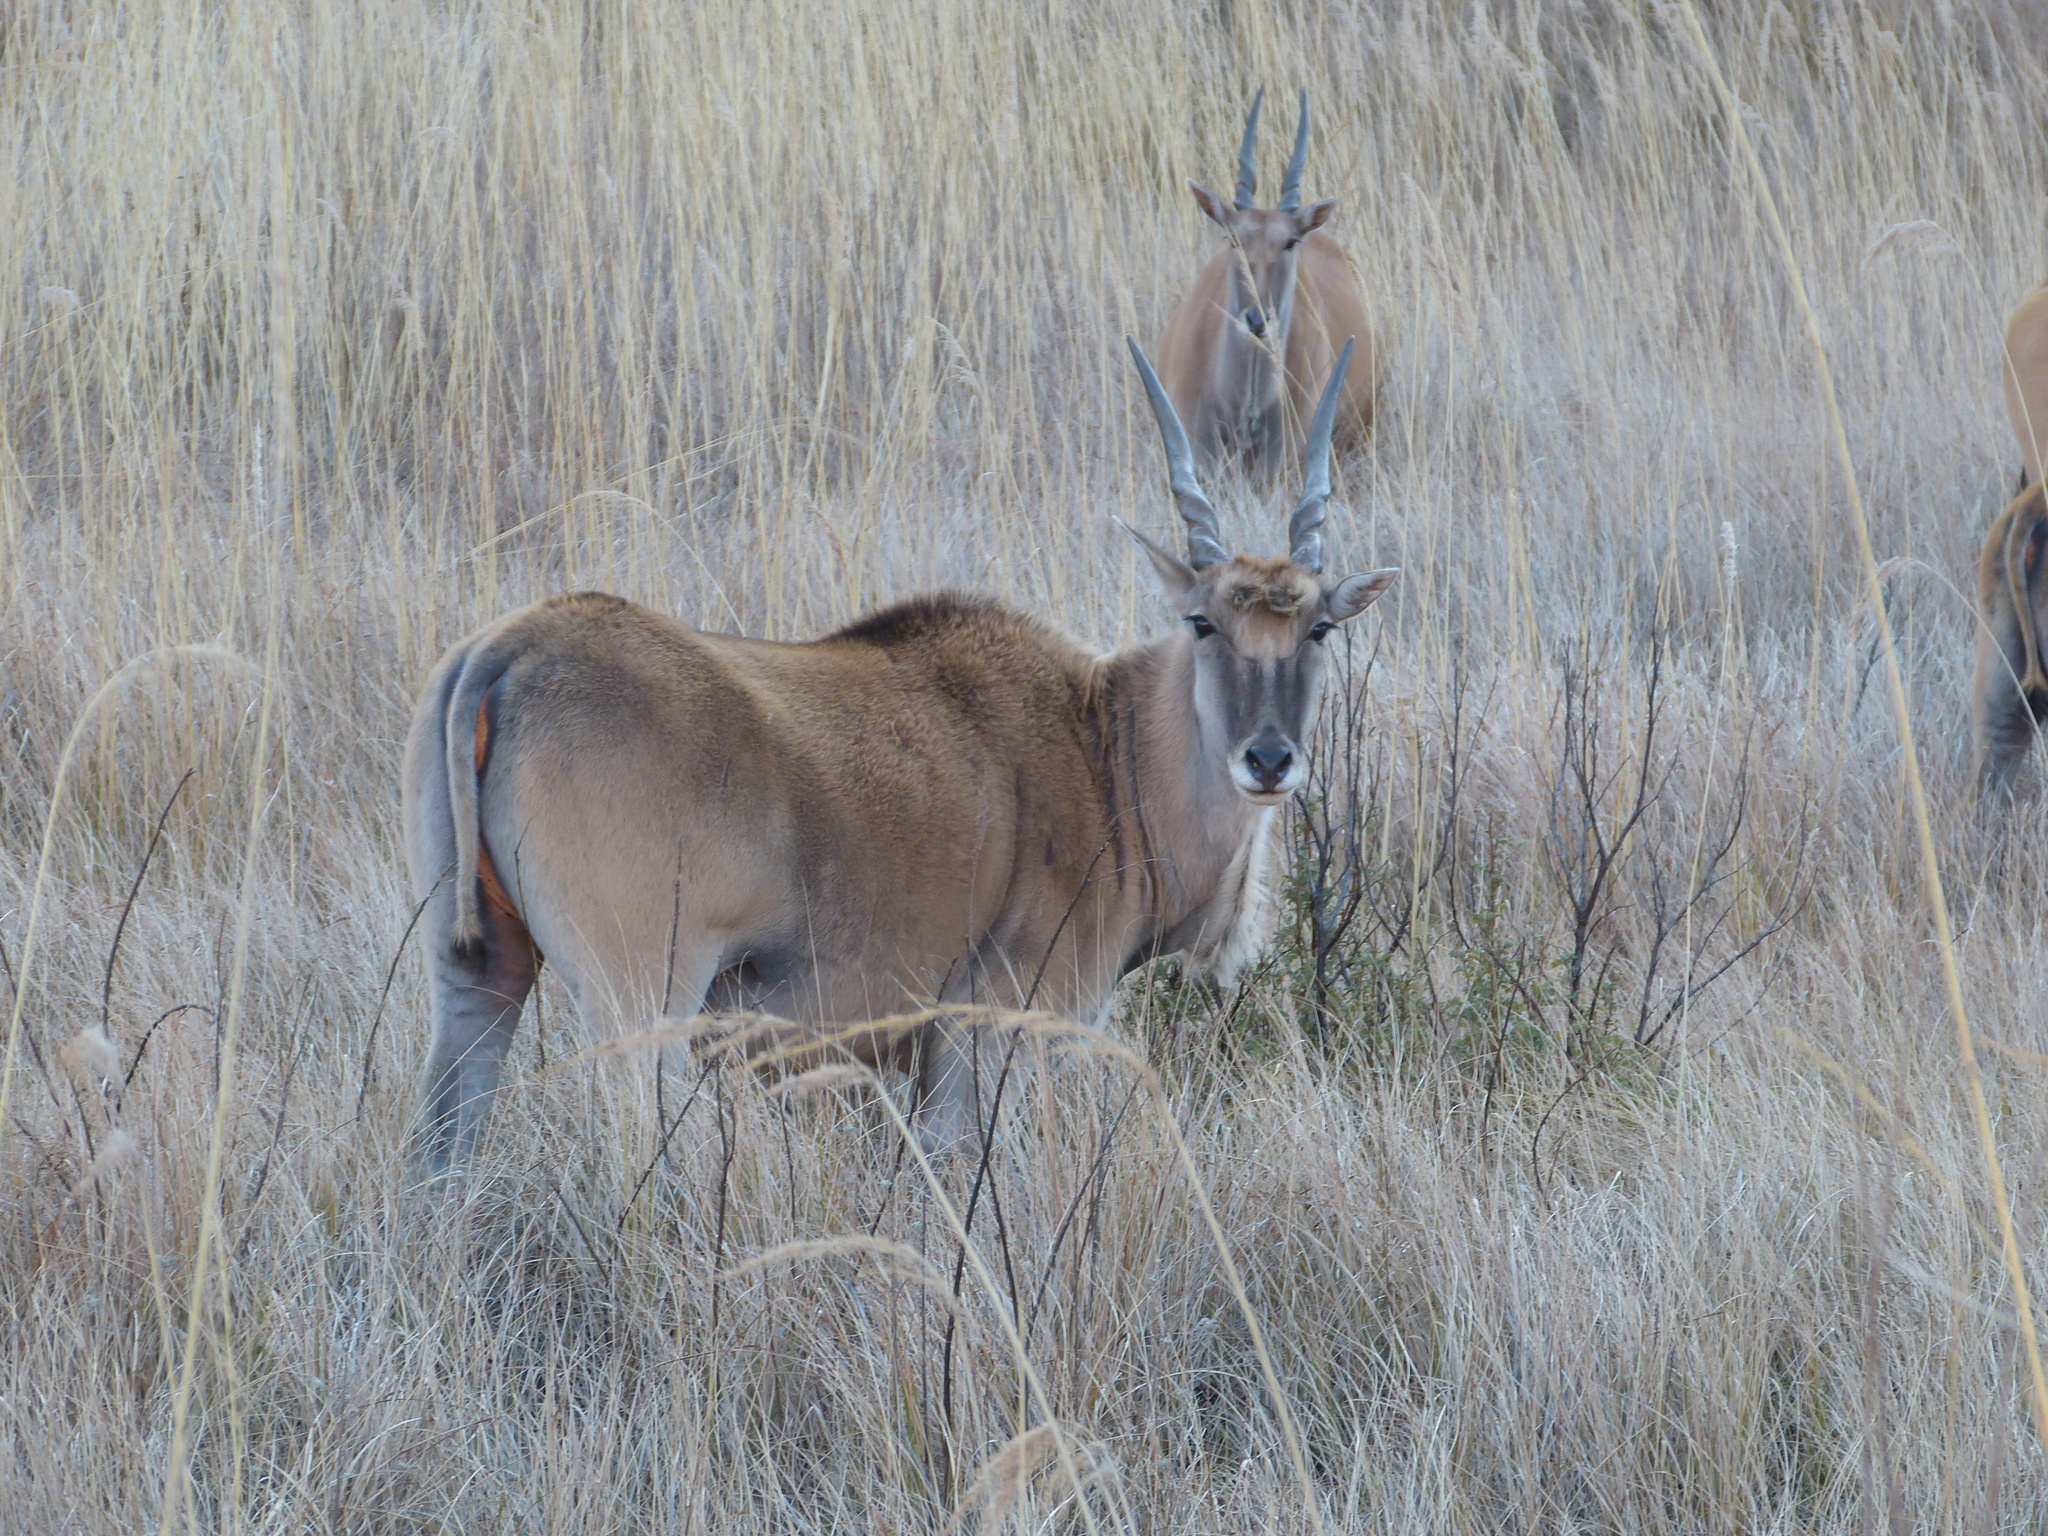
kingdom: Animalia
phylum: Chordata
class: Mammalia
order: Artiodactyla
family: Bovidae
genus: Taurotragus
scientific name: Taurotragus oryx
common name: Common eland
